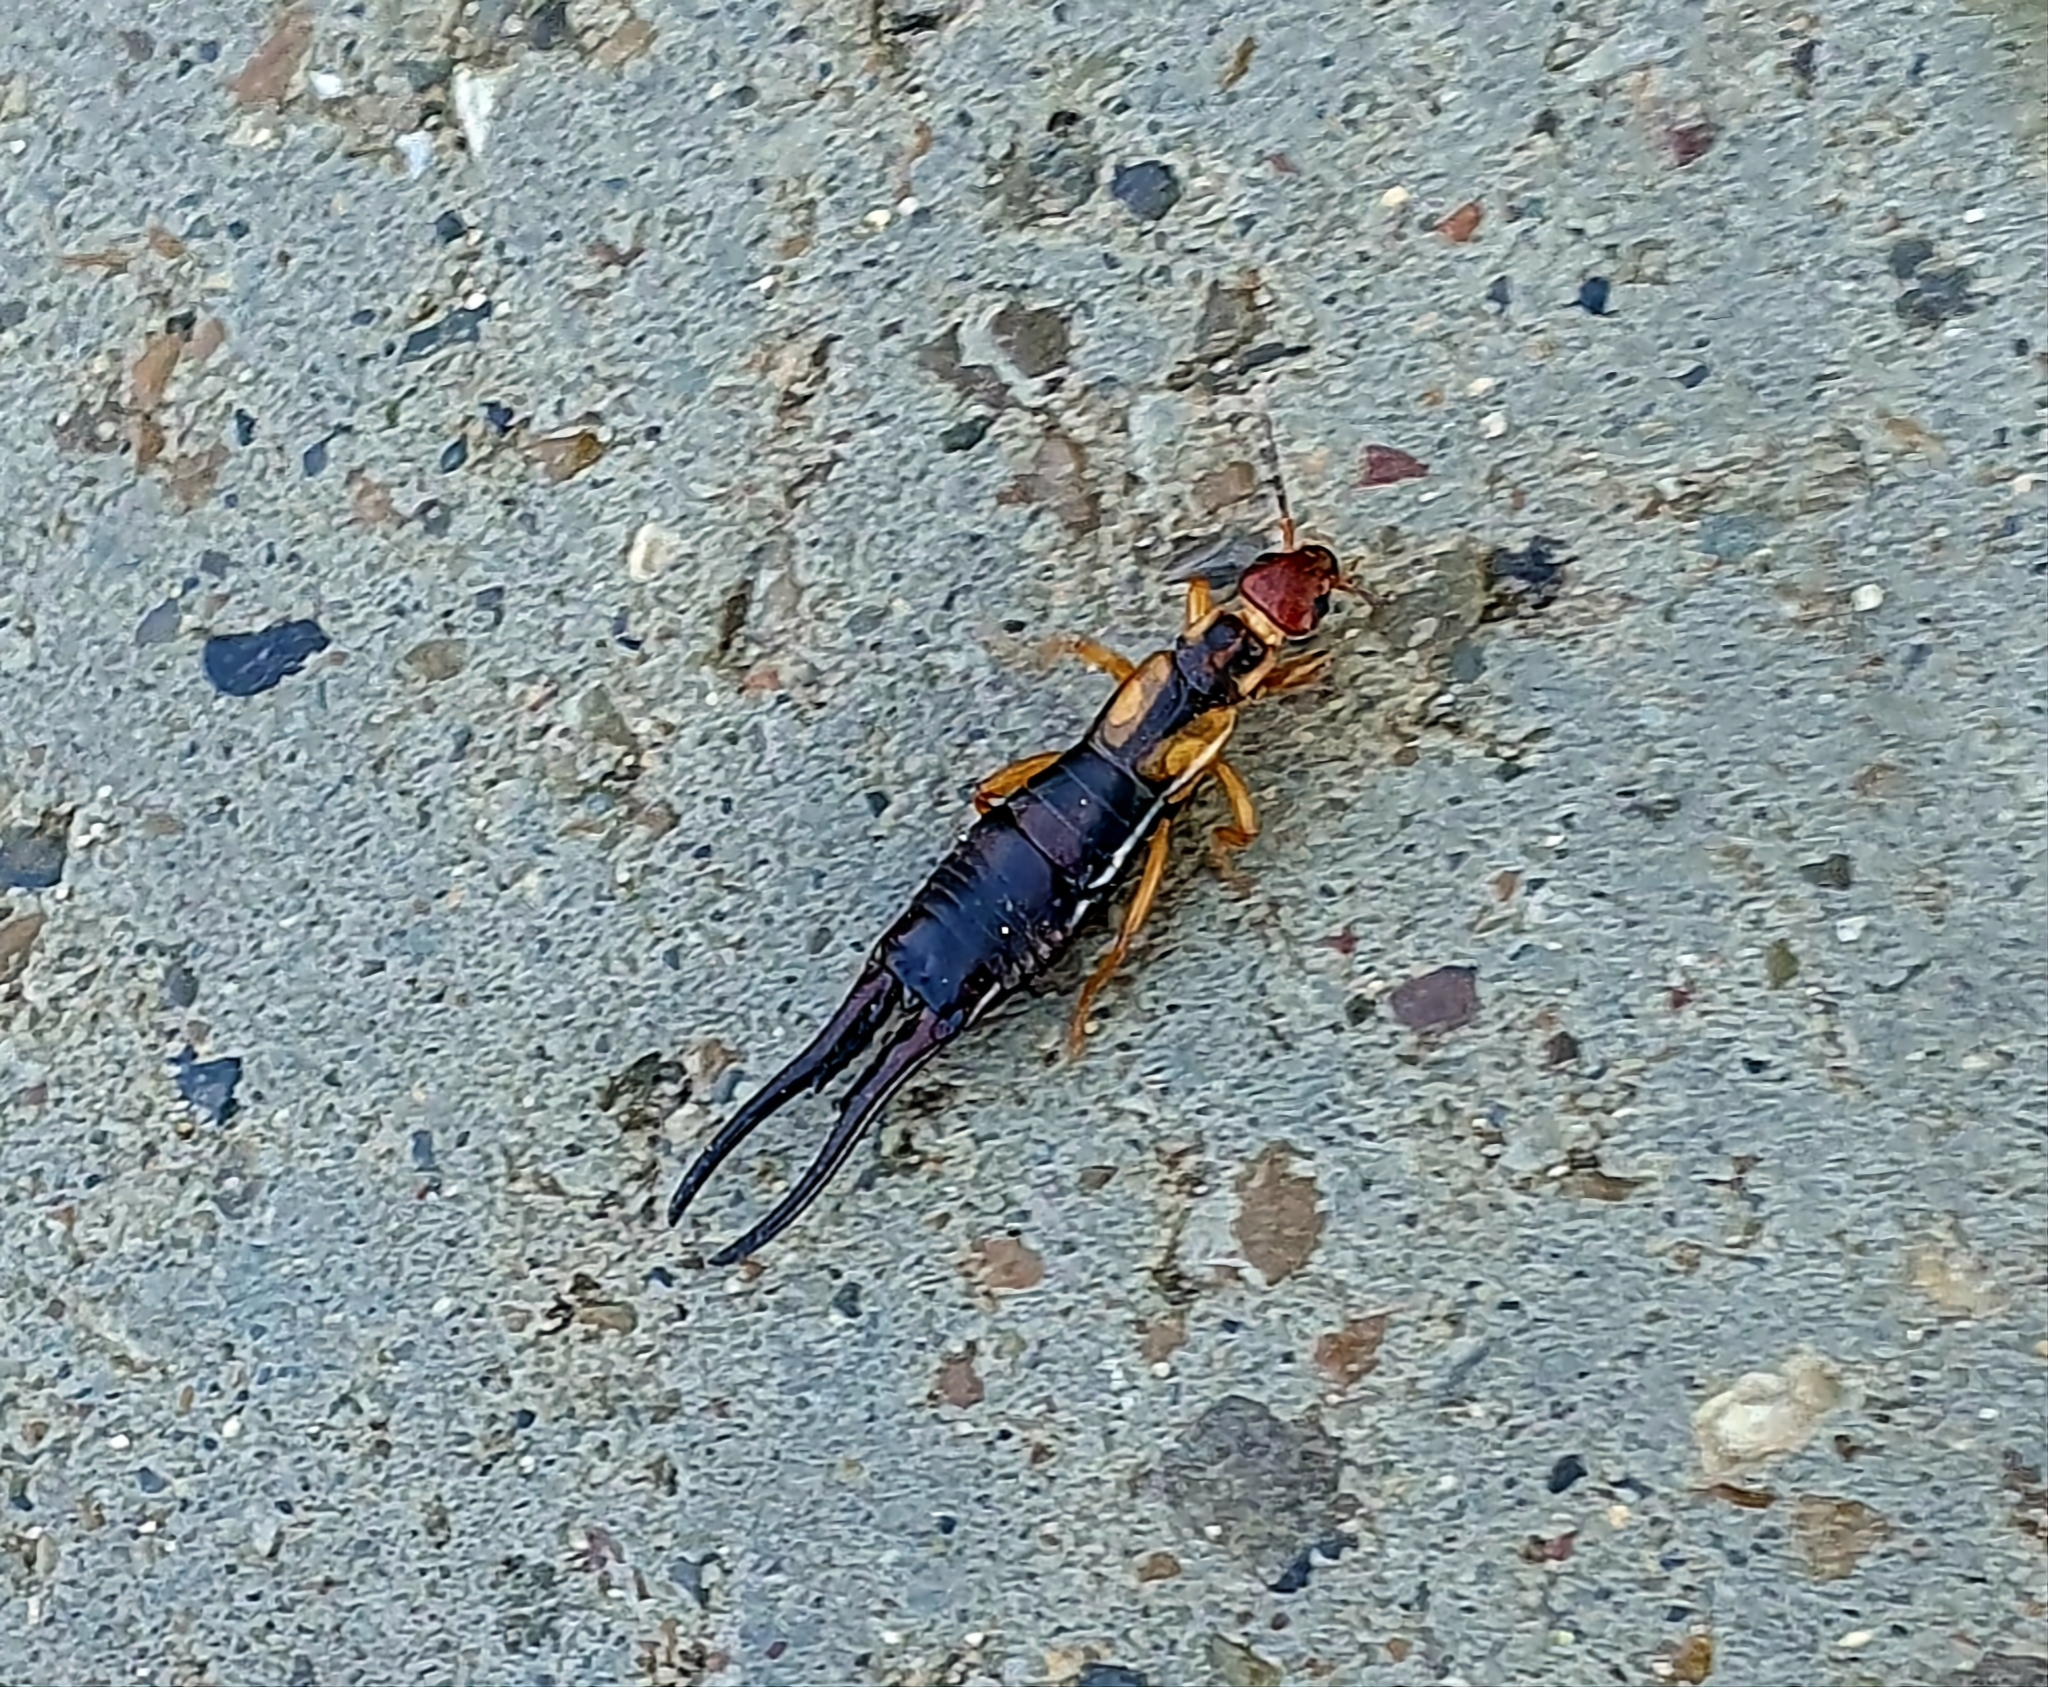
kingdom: Animalia
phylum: Arthropoda
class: Insecta
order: Dermaptera
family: Forficulidae
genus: Forficula
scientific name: Forficula tomis
